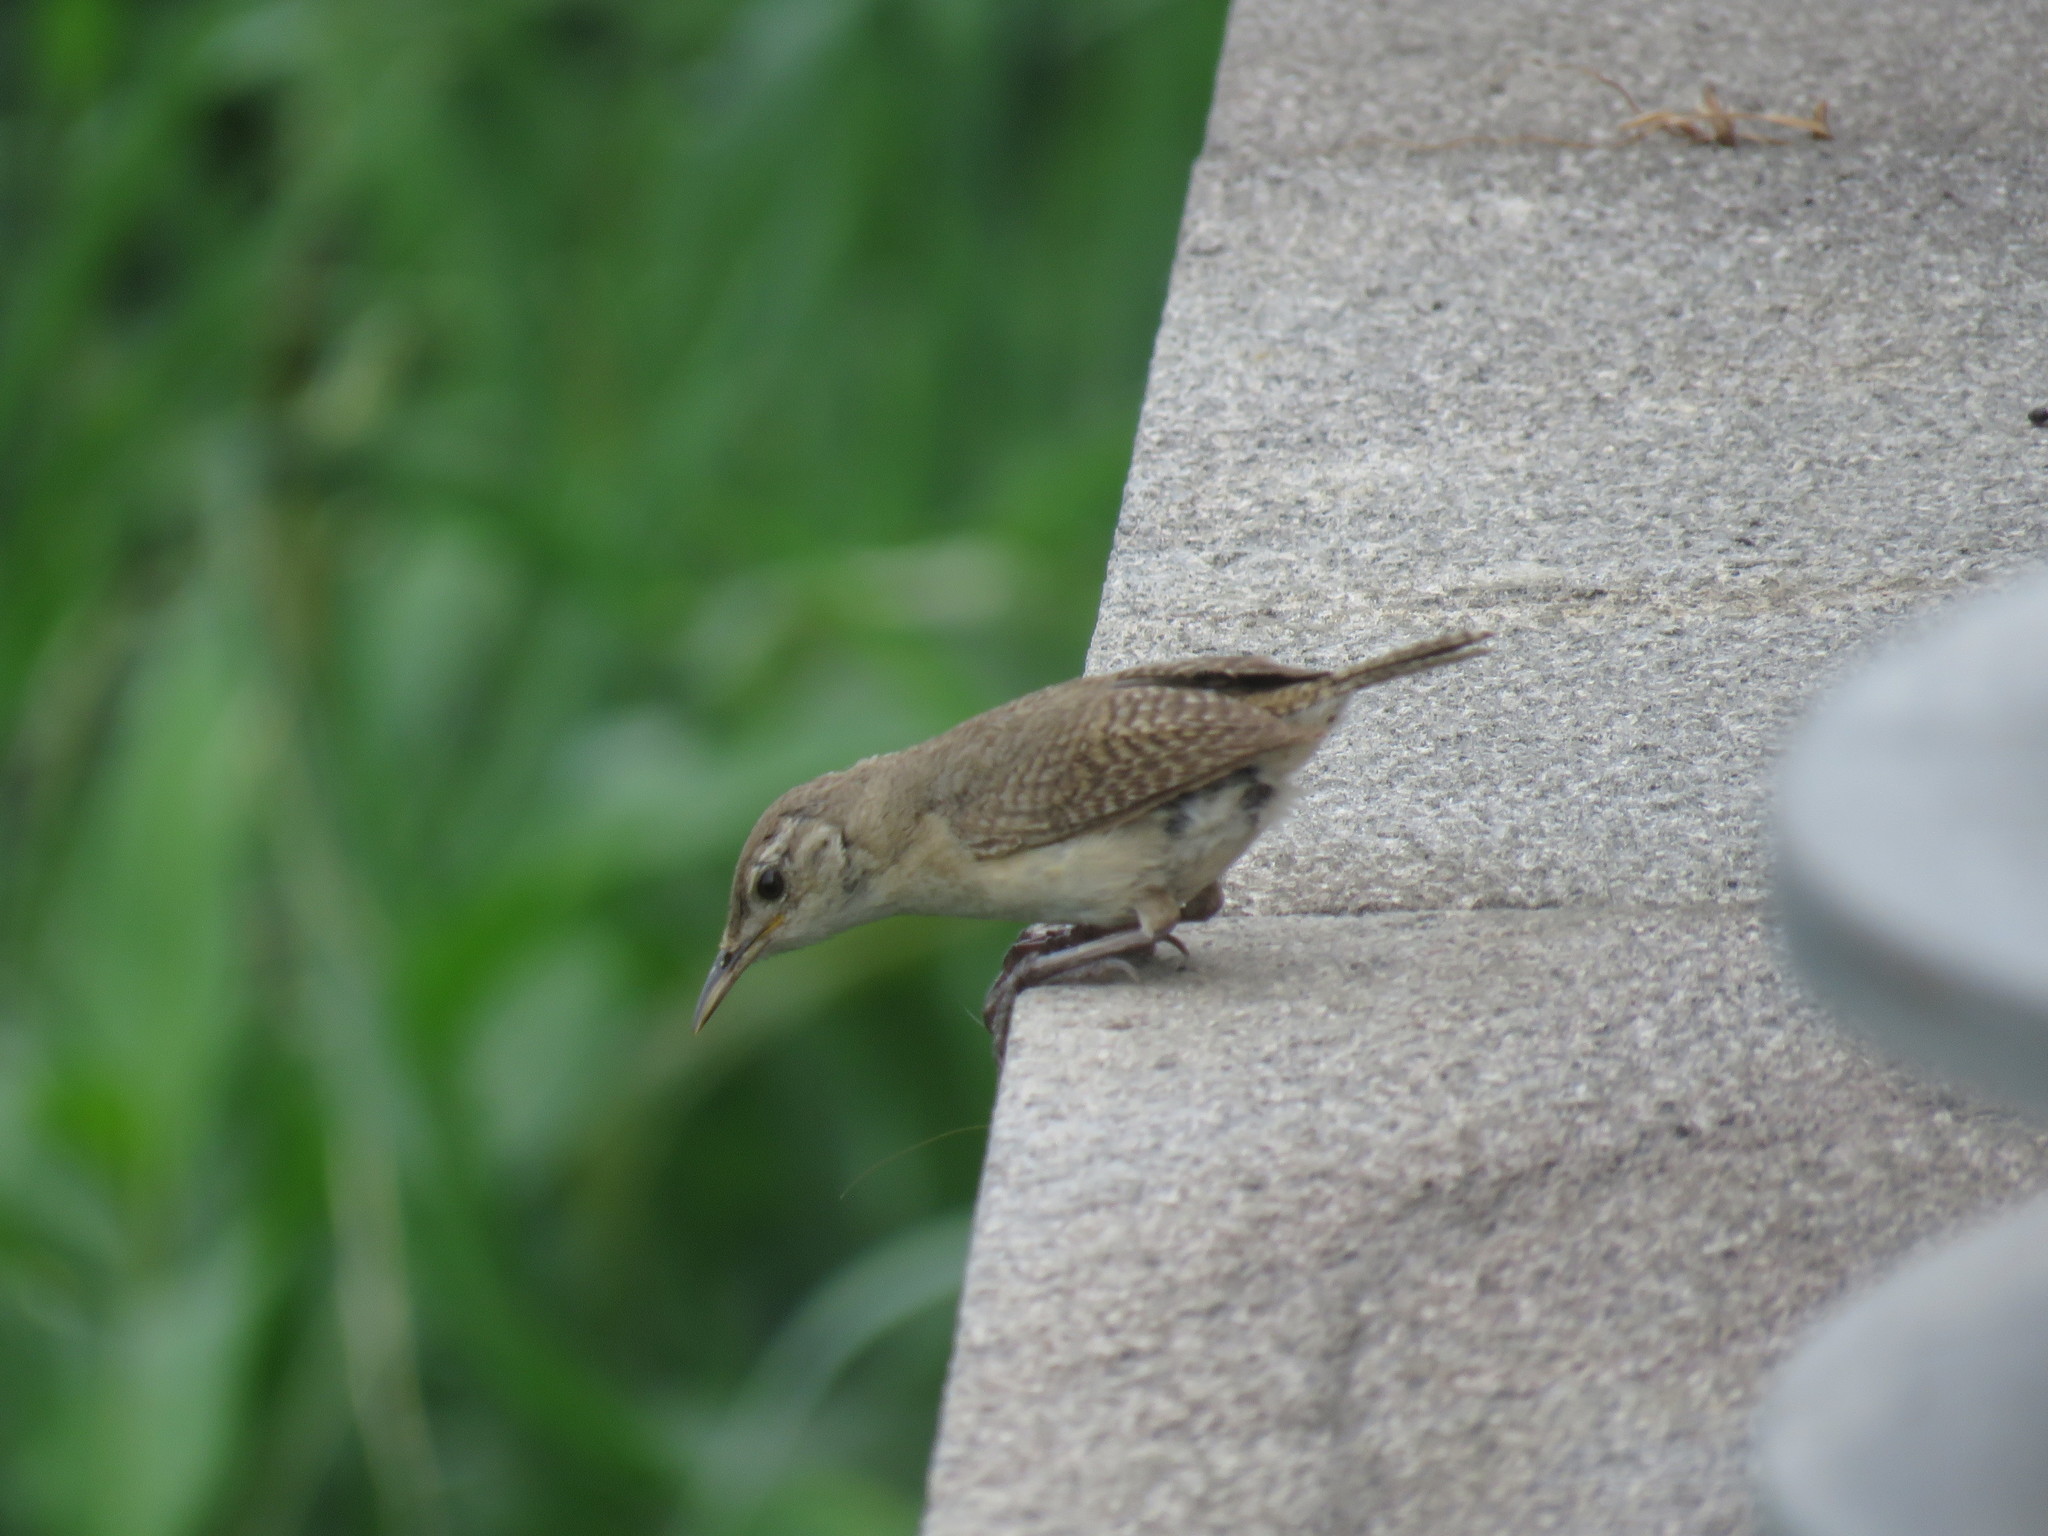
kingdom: Animalia
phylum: Chordata
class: Aves
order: Passeriformes
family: Troglodytidae
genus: Troglodytes
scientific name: Troglodytes aedon
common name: House wren
